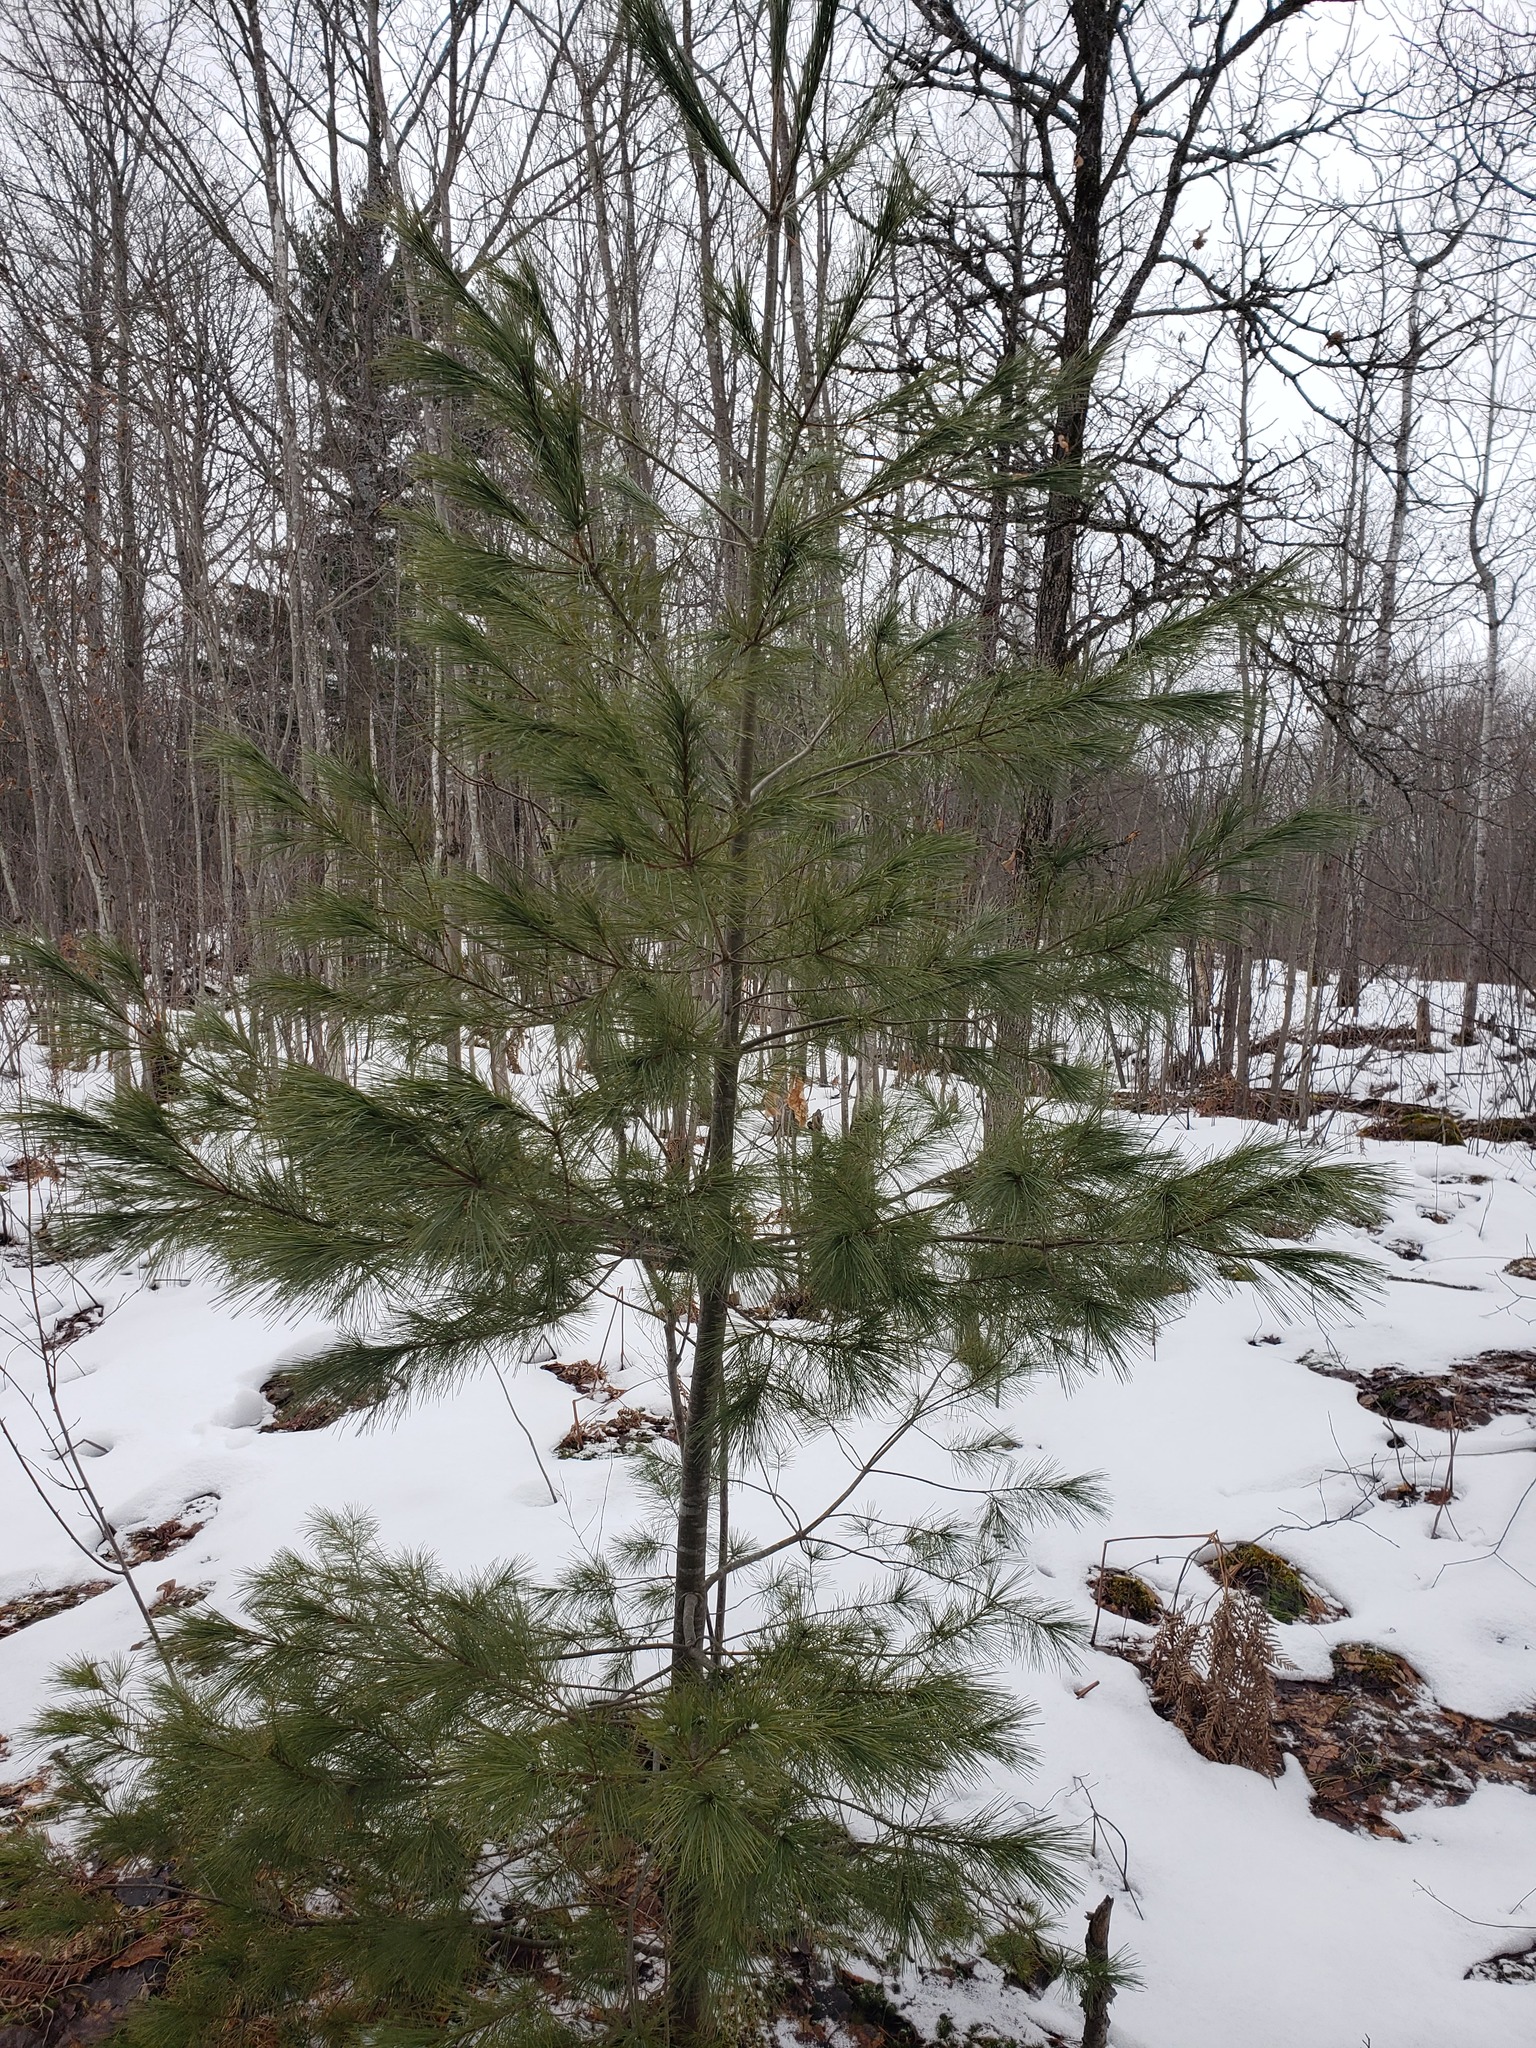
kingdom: Plantae
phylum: Tracheophyta
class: Pinopsida
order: Pinales
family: Pinaceae
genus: Pinus
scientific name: Pinus strobus
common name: Weymouth pine
